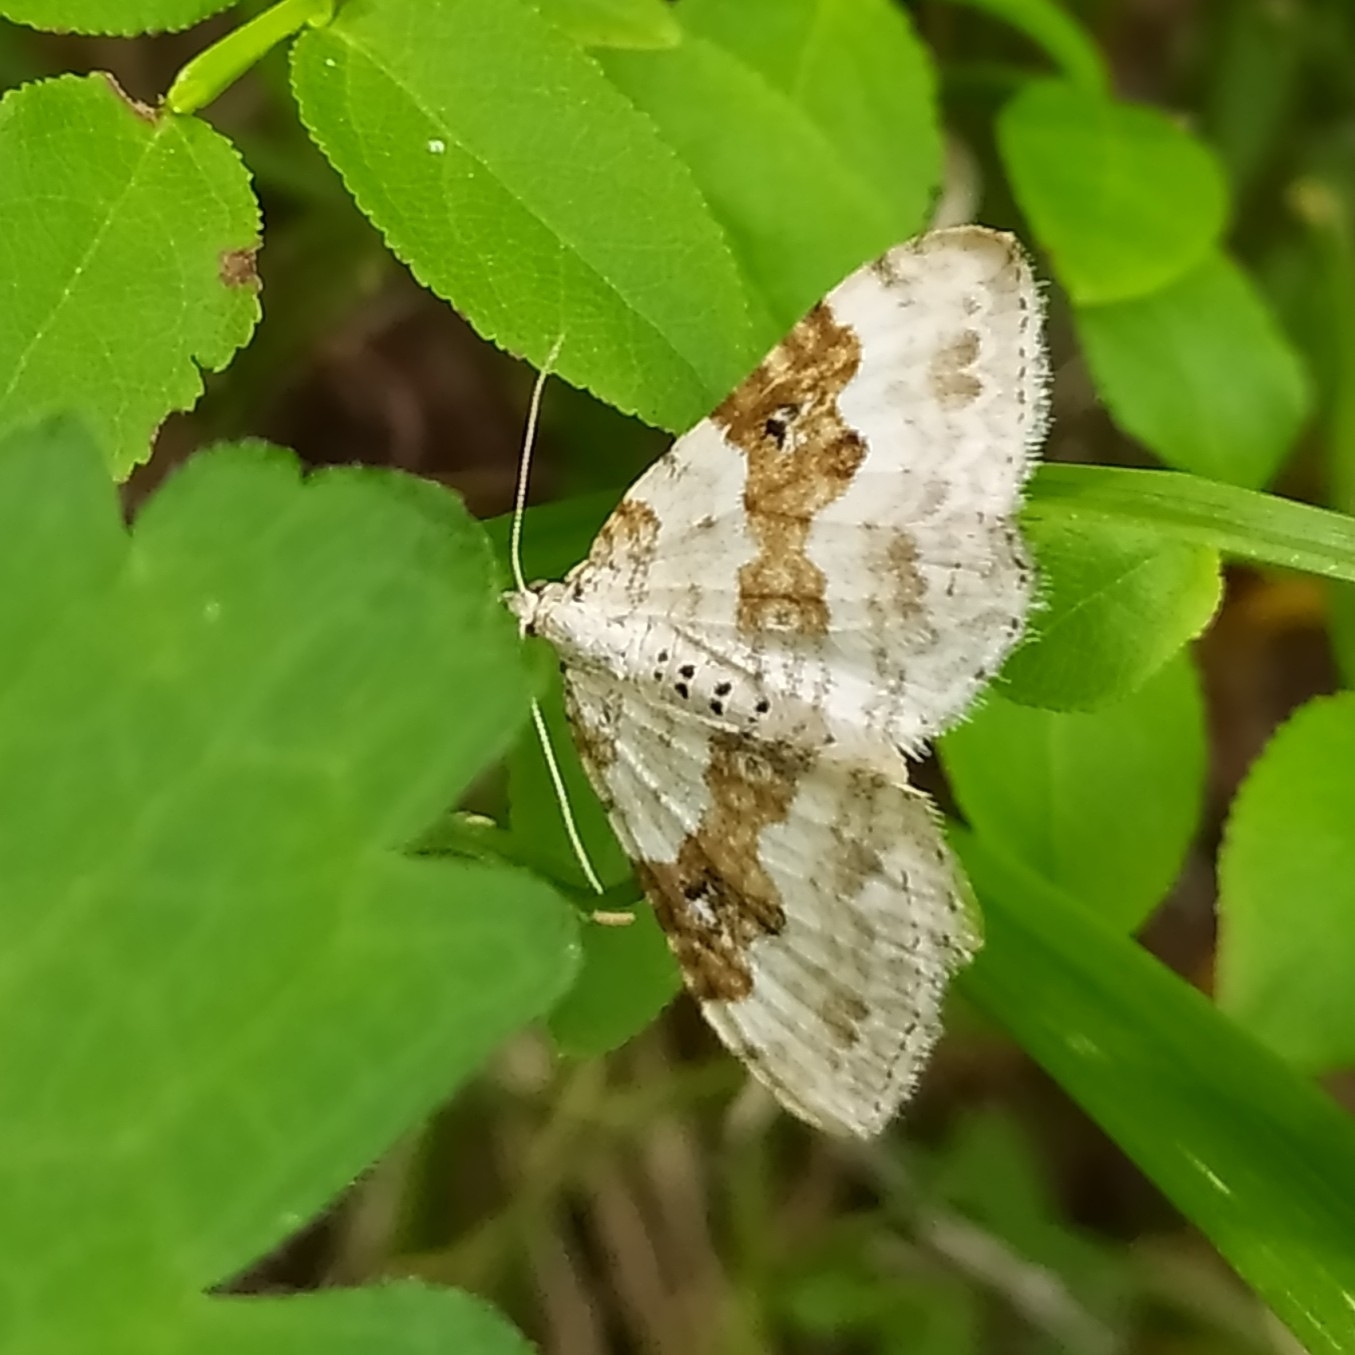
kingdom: Animalia
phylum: Arthropoda
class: Insecta
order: Lepidoptera
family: Geometridae
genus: Xanthorhoe
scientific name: Xanthorhoe montanata
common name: Silver-ground carpet
